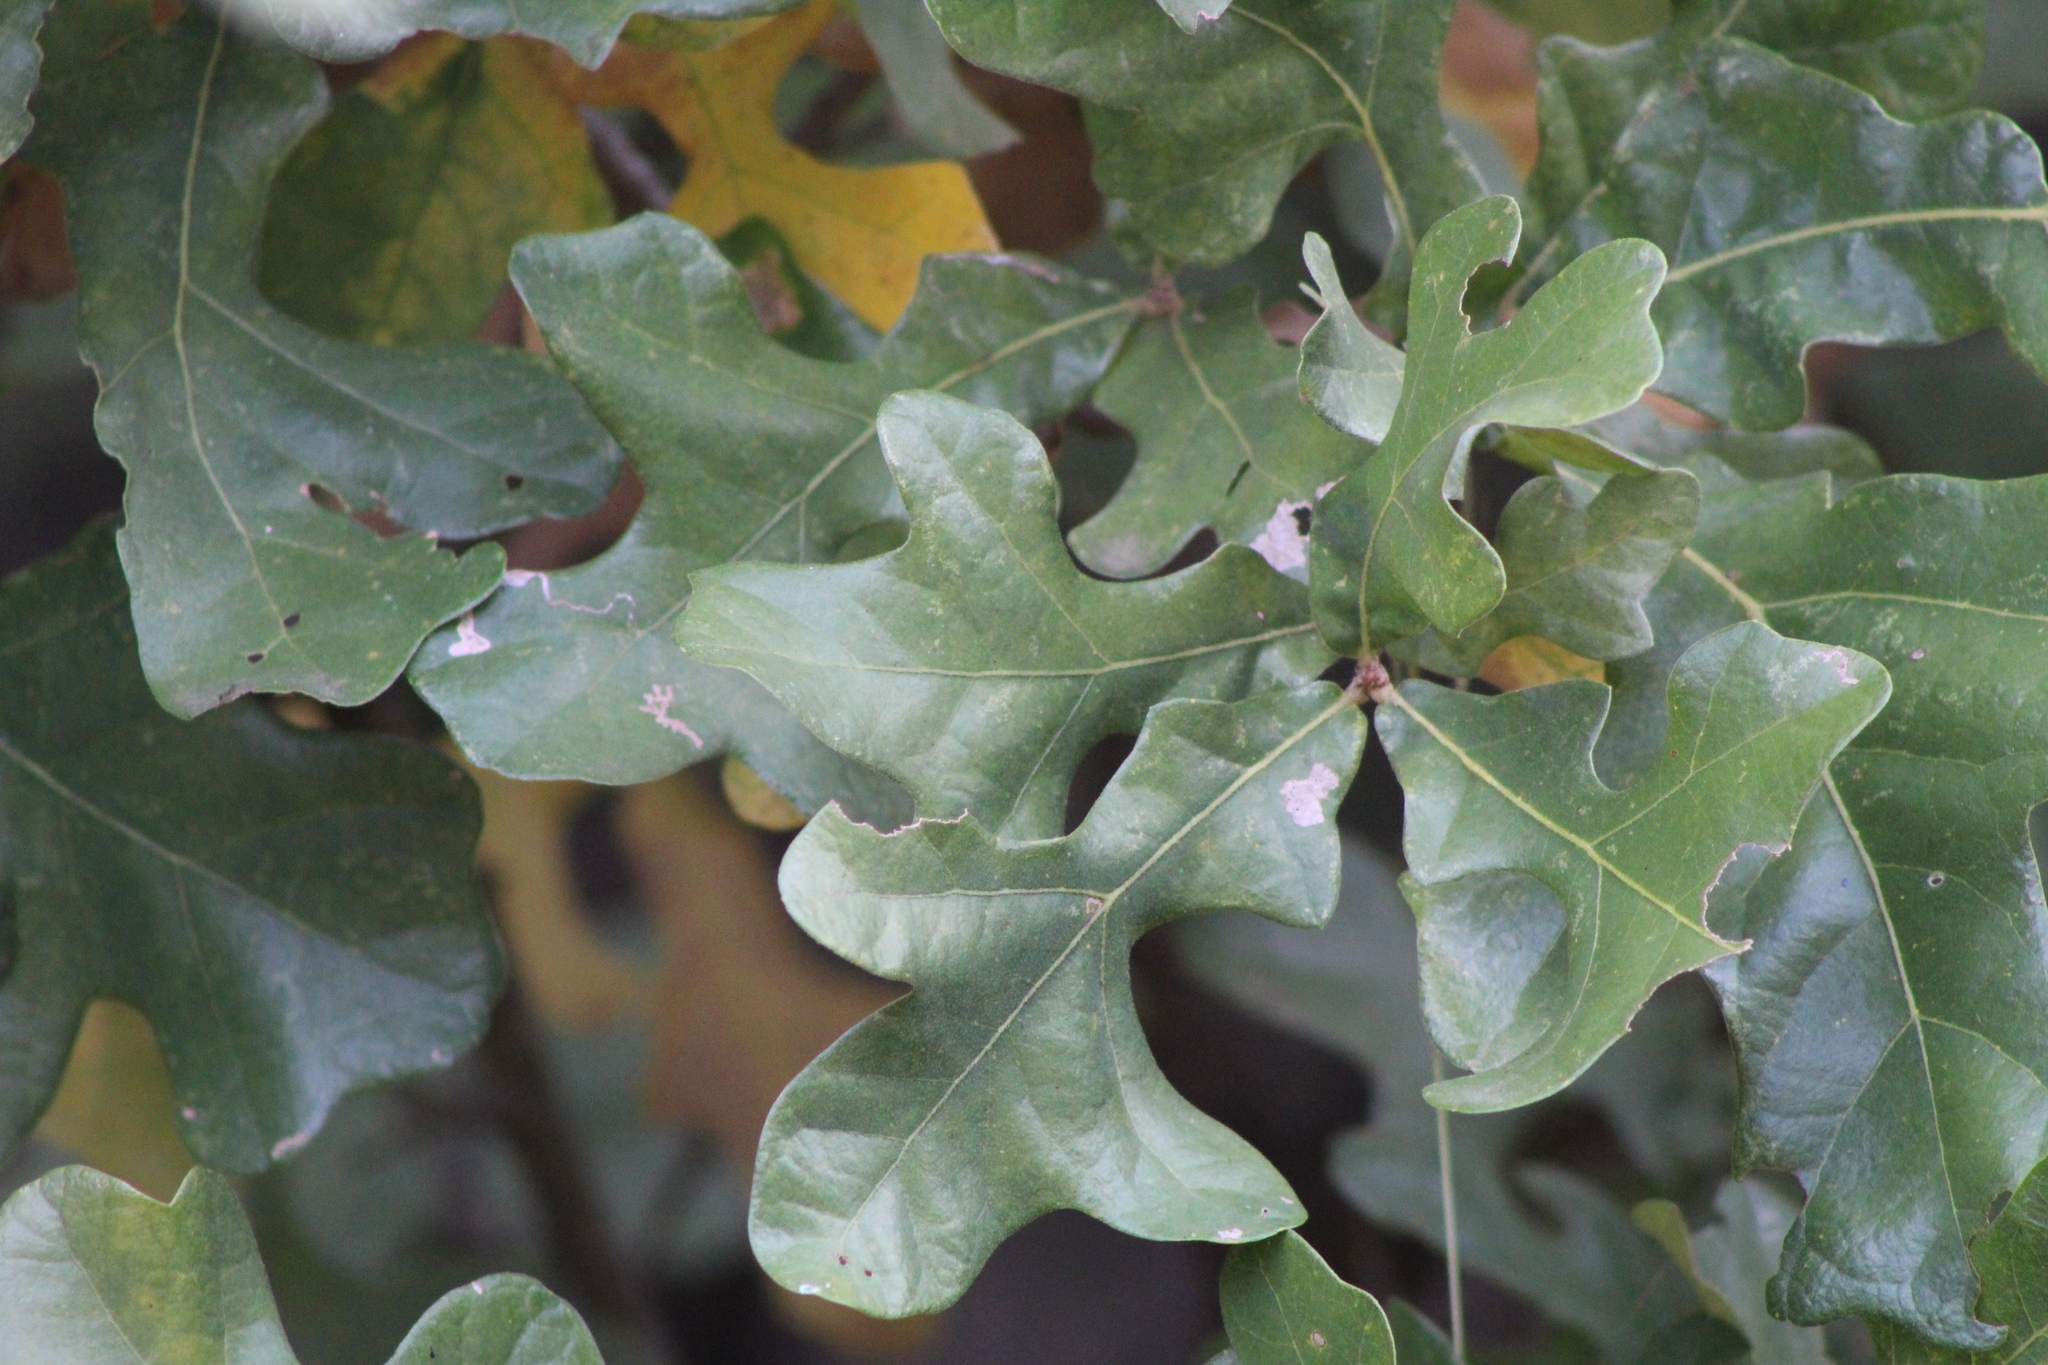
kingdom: Plantae
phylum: Tracheophyta
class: Magnoliopsida
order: Fagales
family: Fagaceae
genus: Quercus
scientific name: Quercus stellata
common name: Post oak
